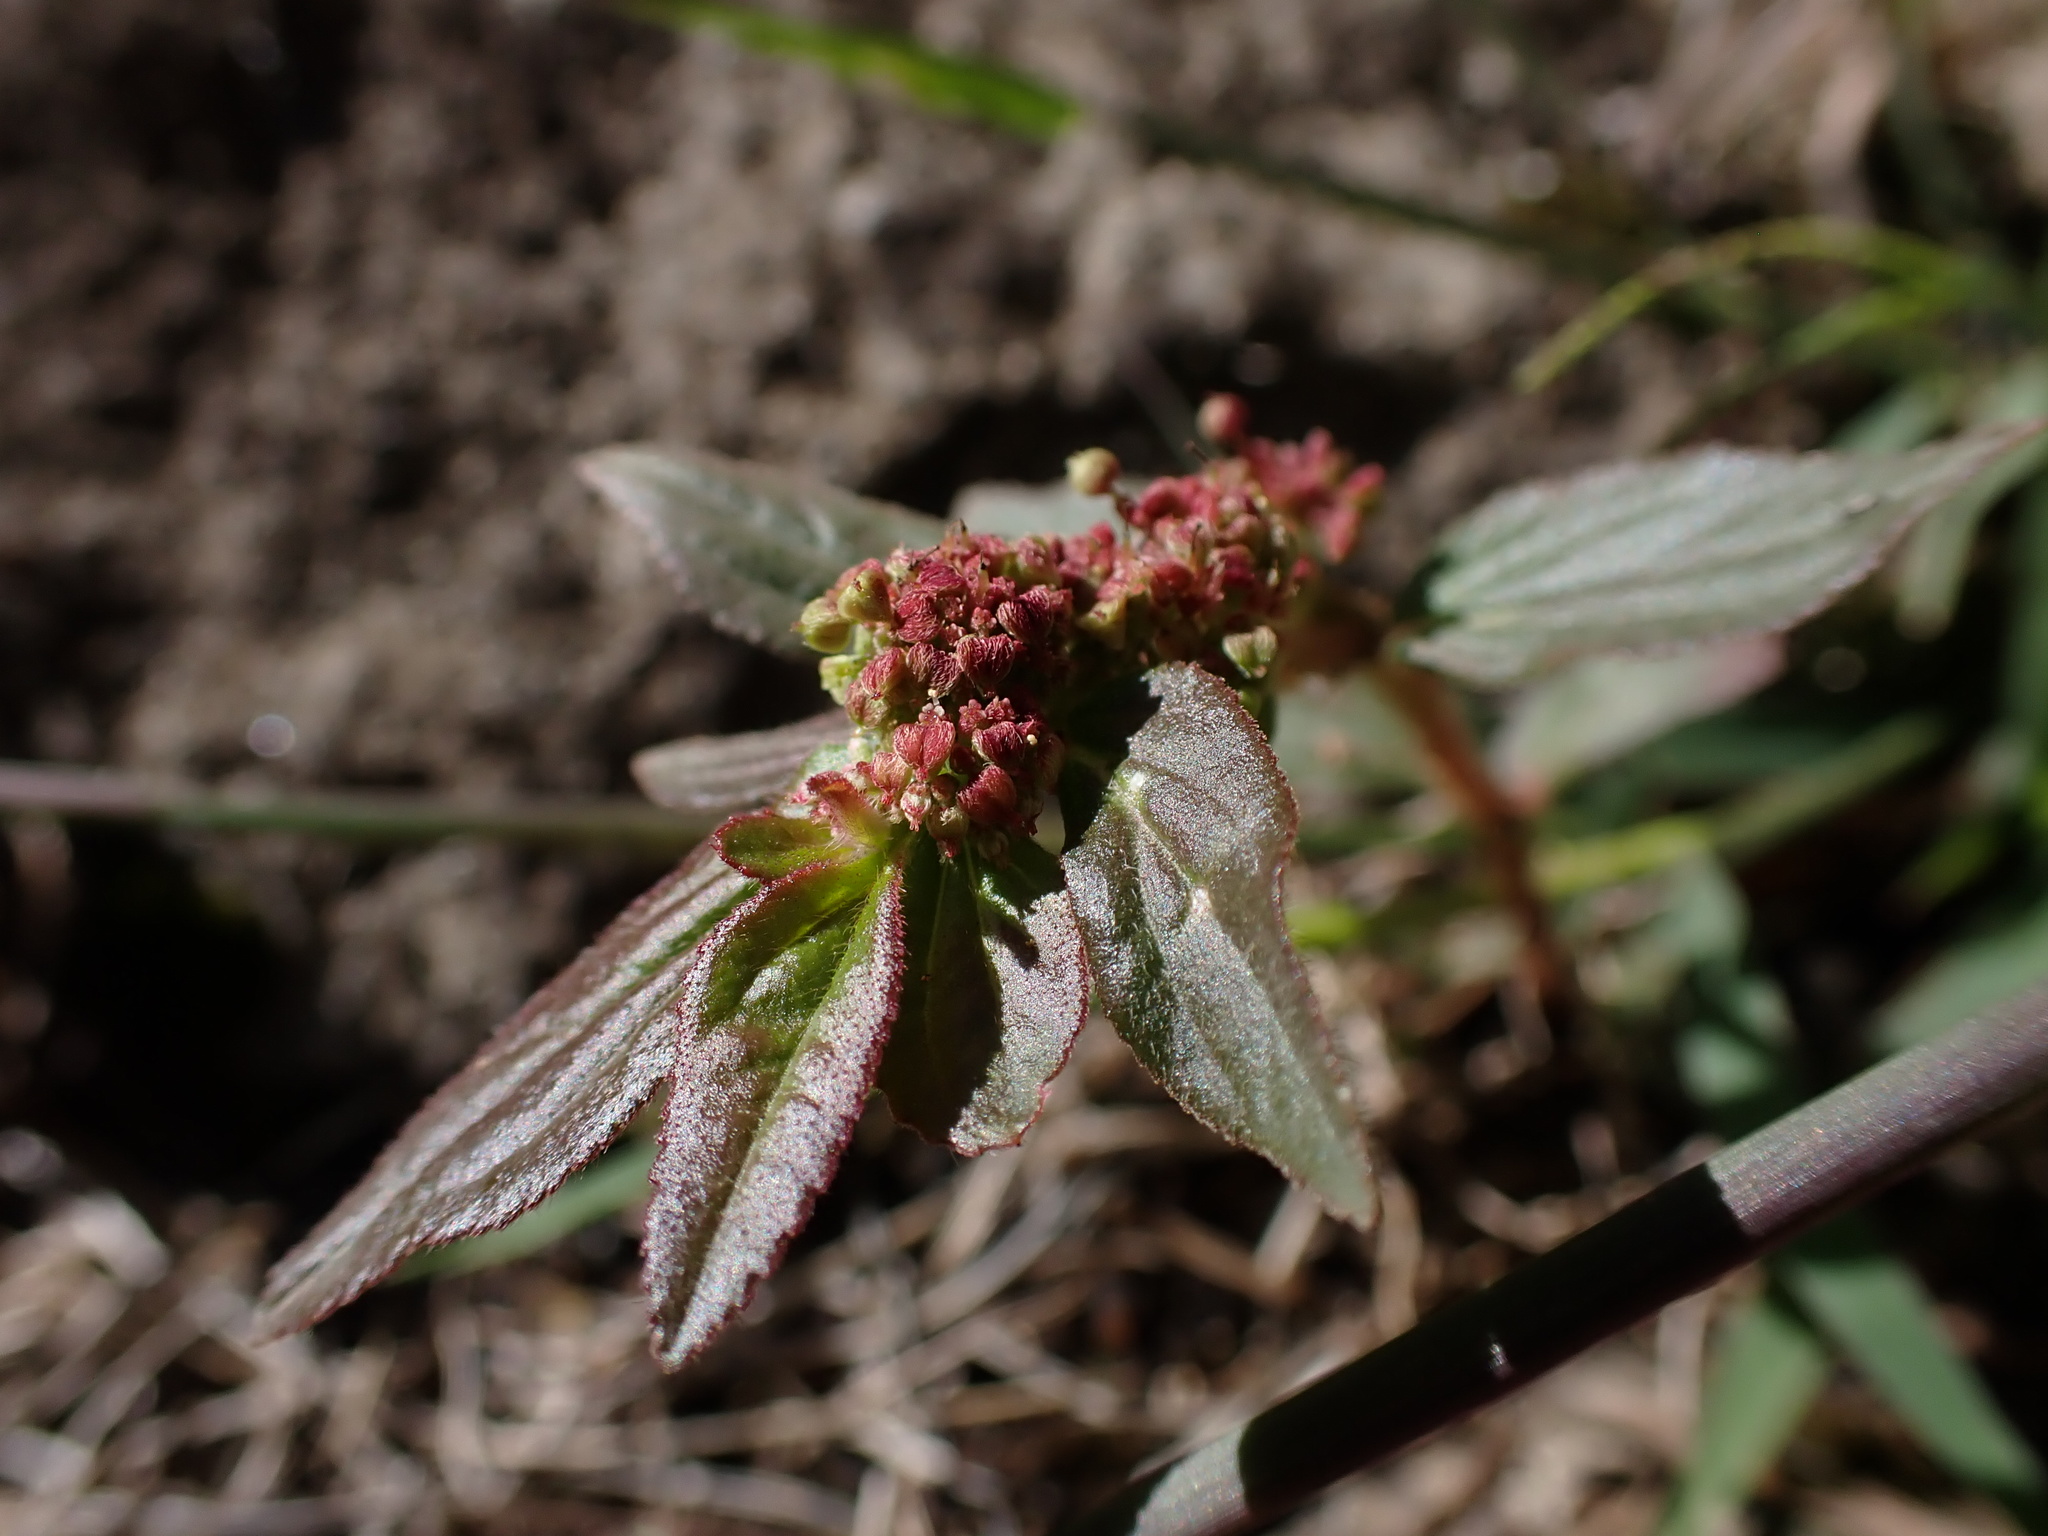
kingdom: Plantae
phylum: Tracheophyta
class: Magnoliopsida
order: Malpighiales
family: Euphorbiaceae
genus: Euphorbia
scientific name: Euphorbia hirta
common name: Pillpod sandmat
